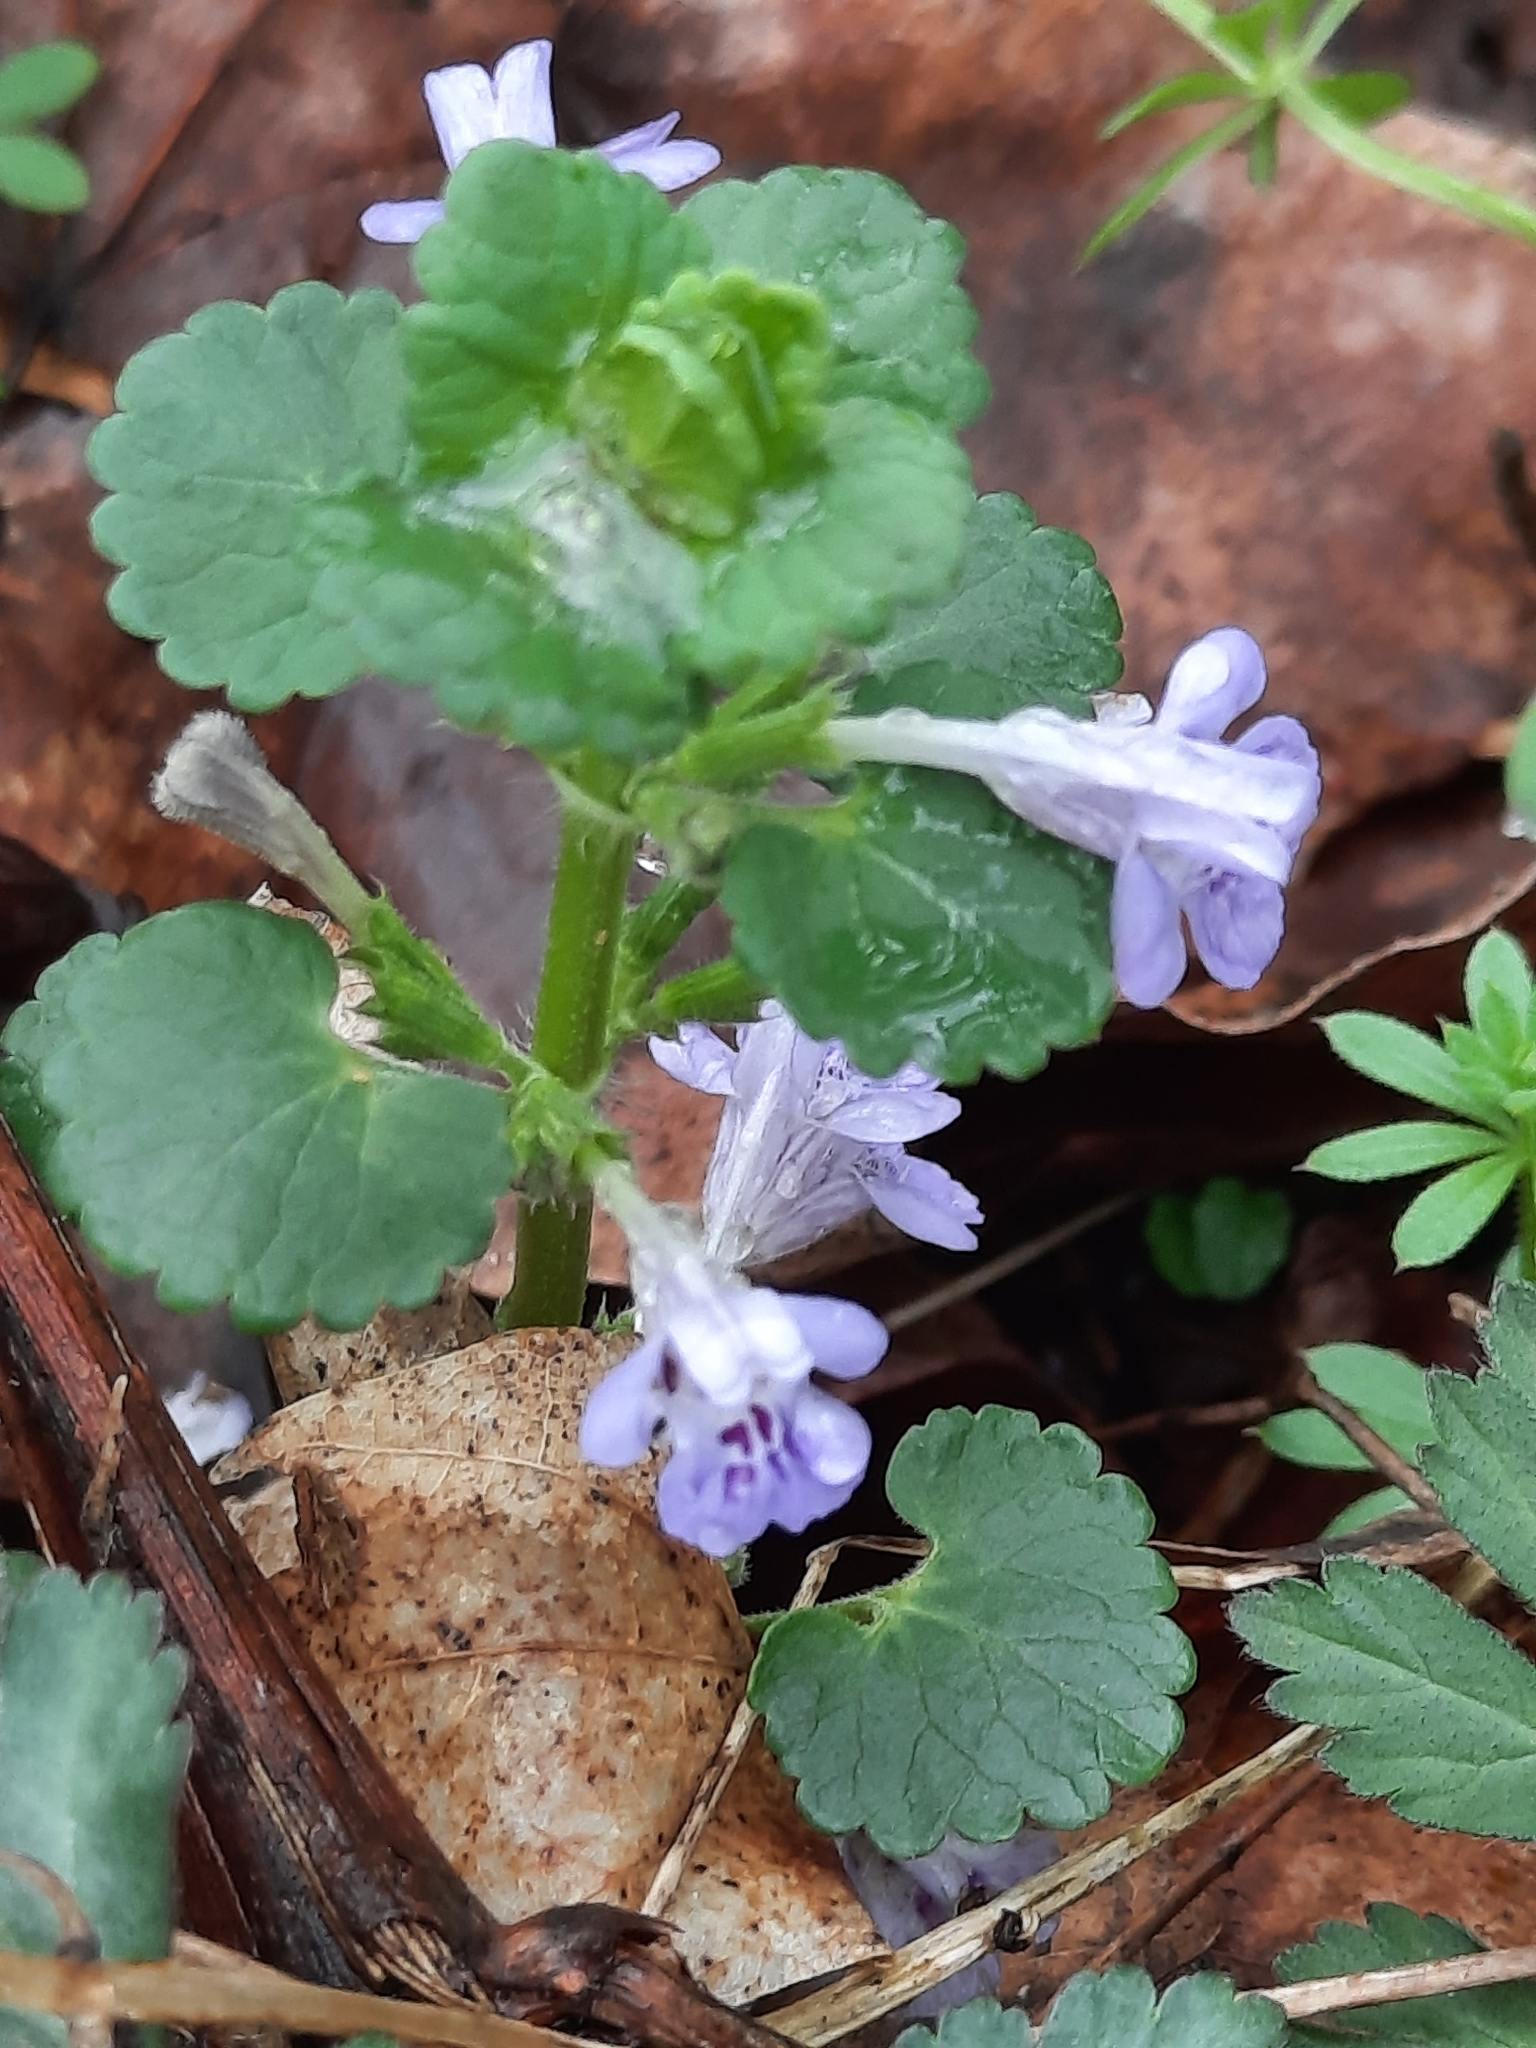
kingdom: Plantae
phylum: Tracheophyta
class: Magnoliopsida
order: Lamiales
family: Lamiaceae
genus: Glechoma
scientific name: Glechoma hederacea
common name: Ground ivy
